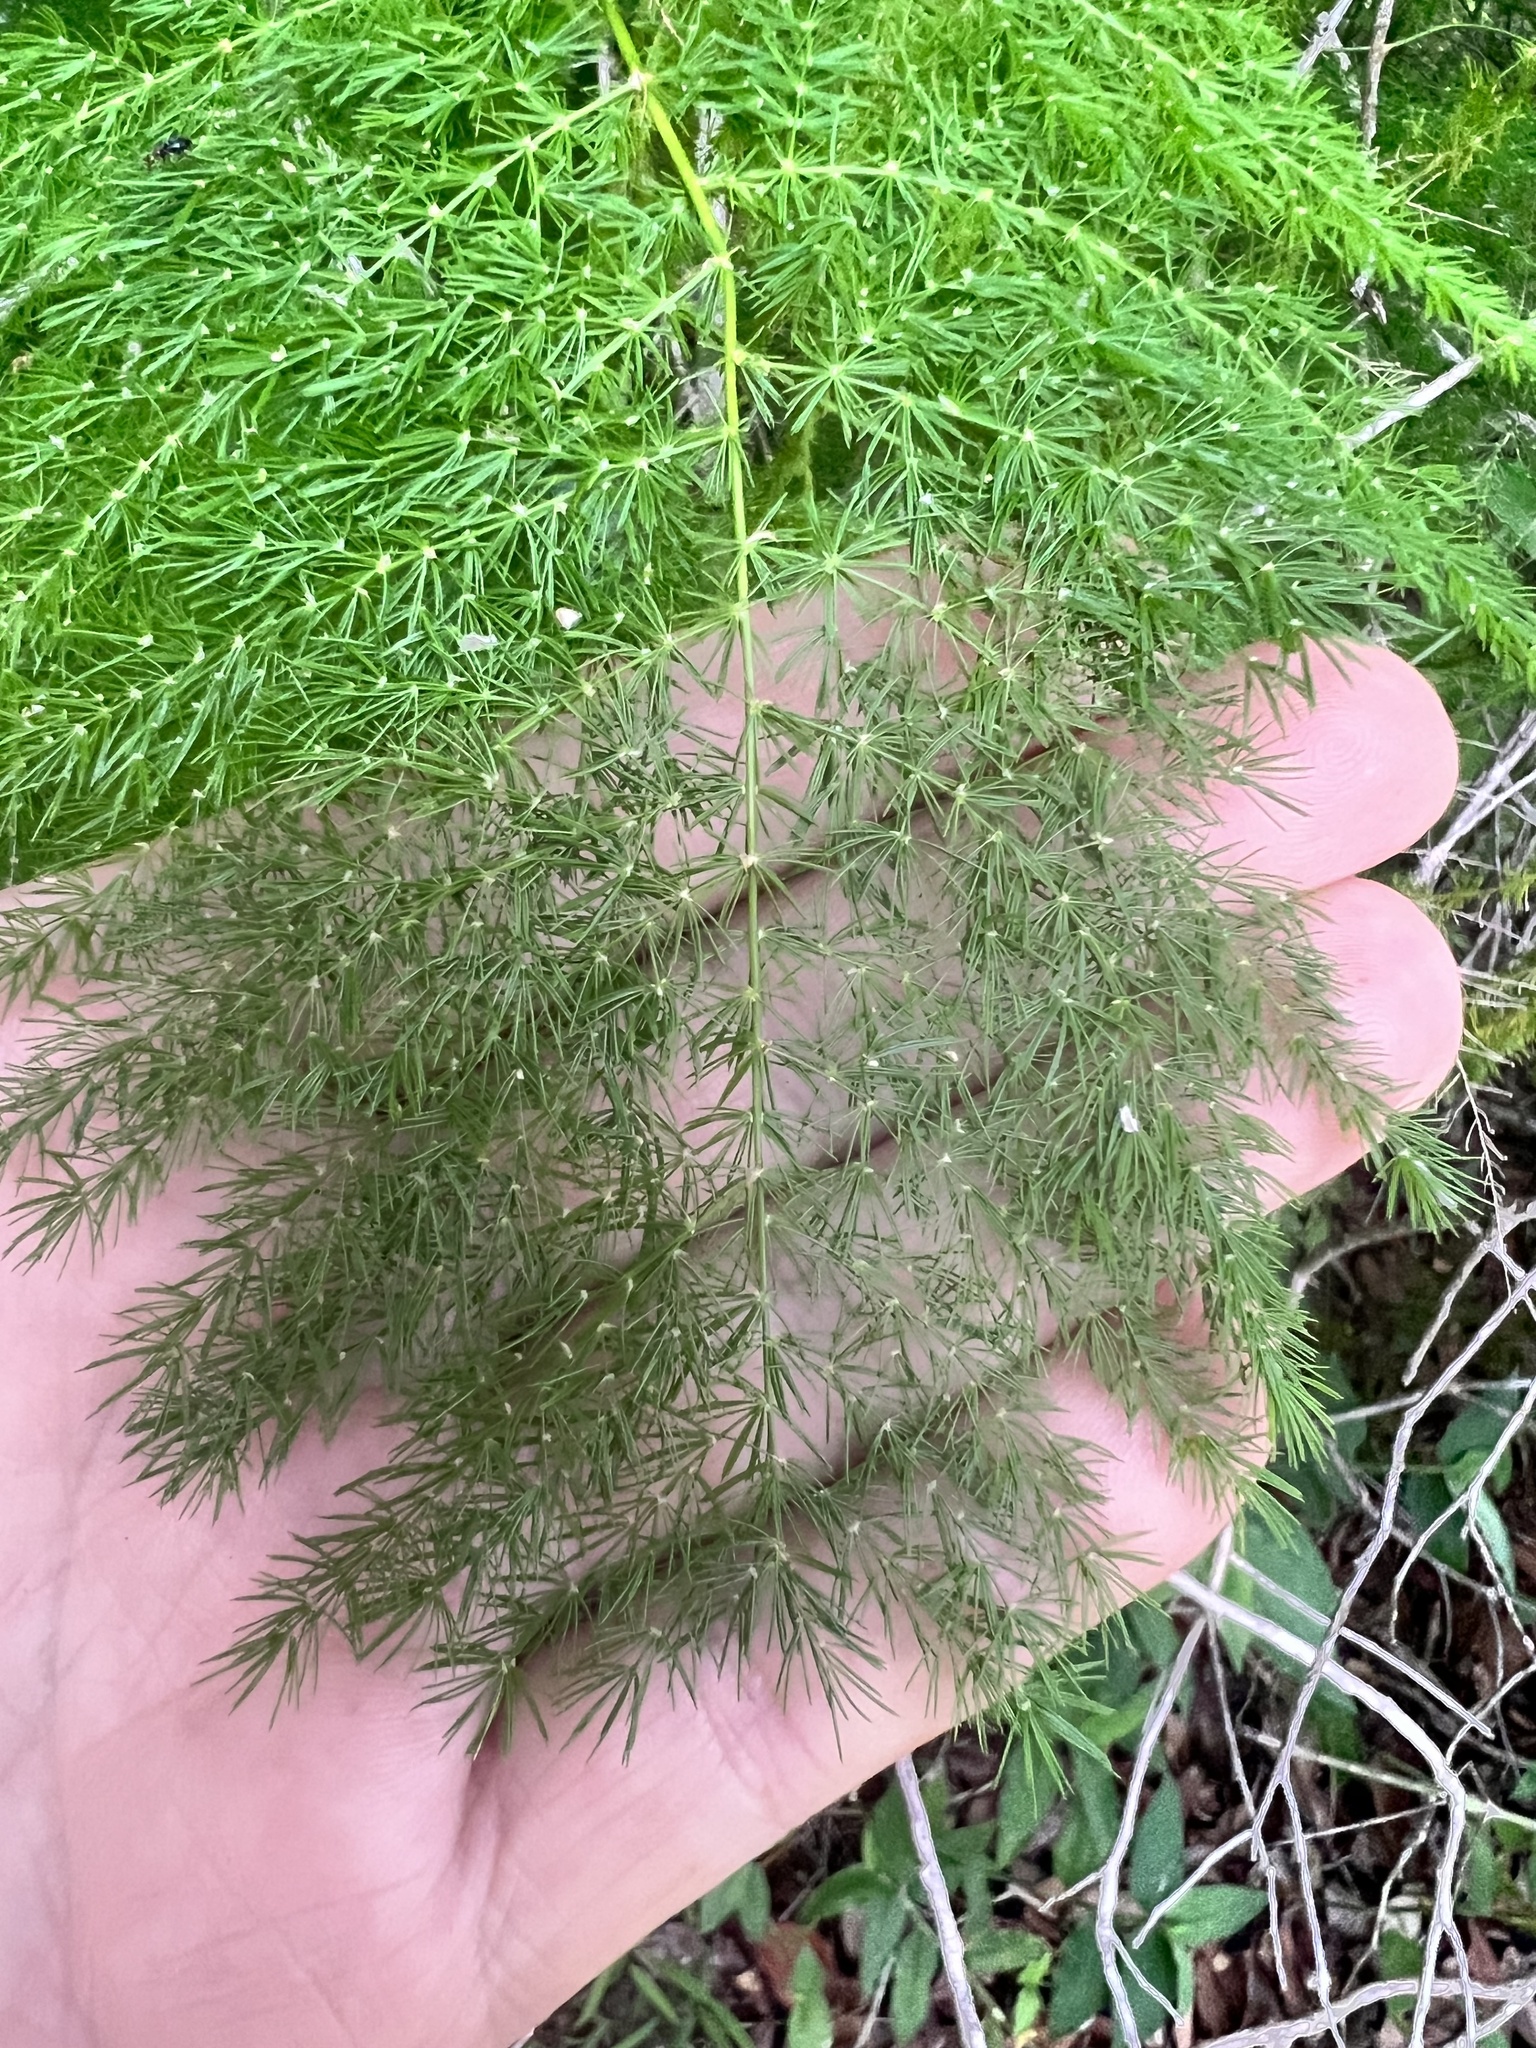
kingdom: Plantae
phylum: Tracheophyta
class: Liliopsida
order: Asparagales
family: Asparagaceae
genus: Asparagus
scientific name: Asparagus setaceus
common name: Common asparagus fern
